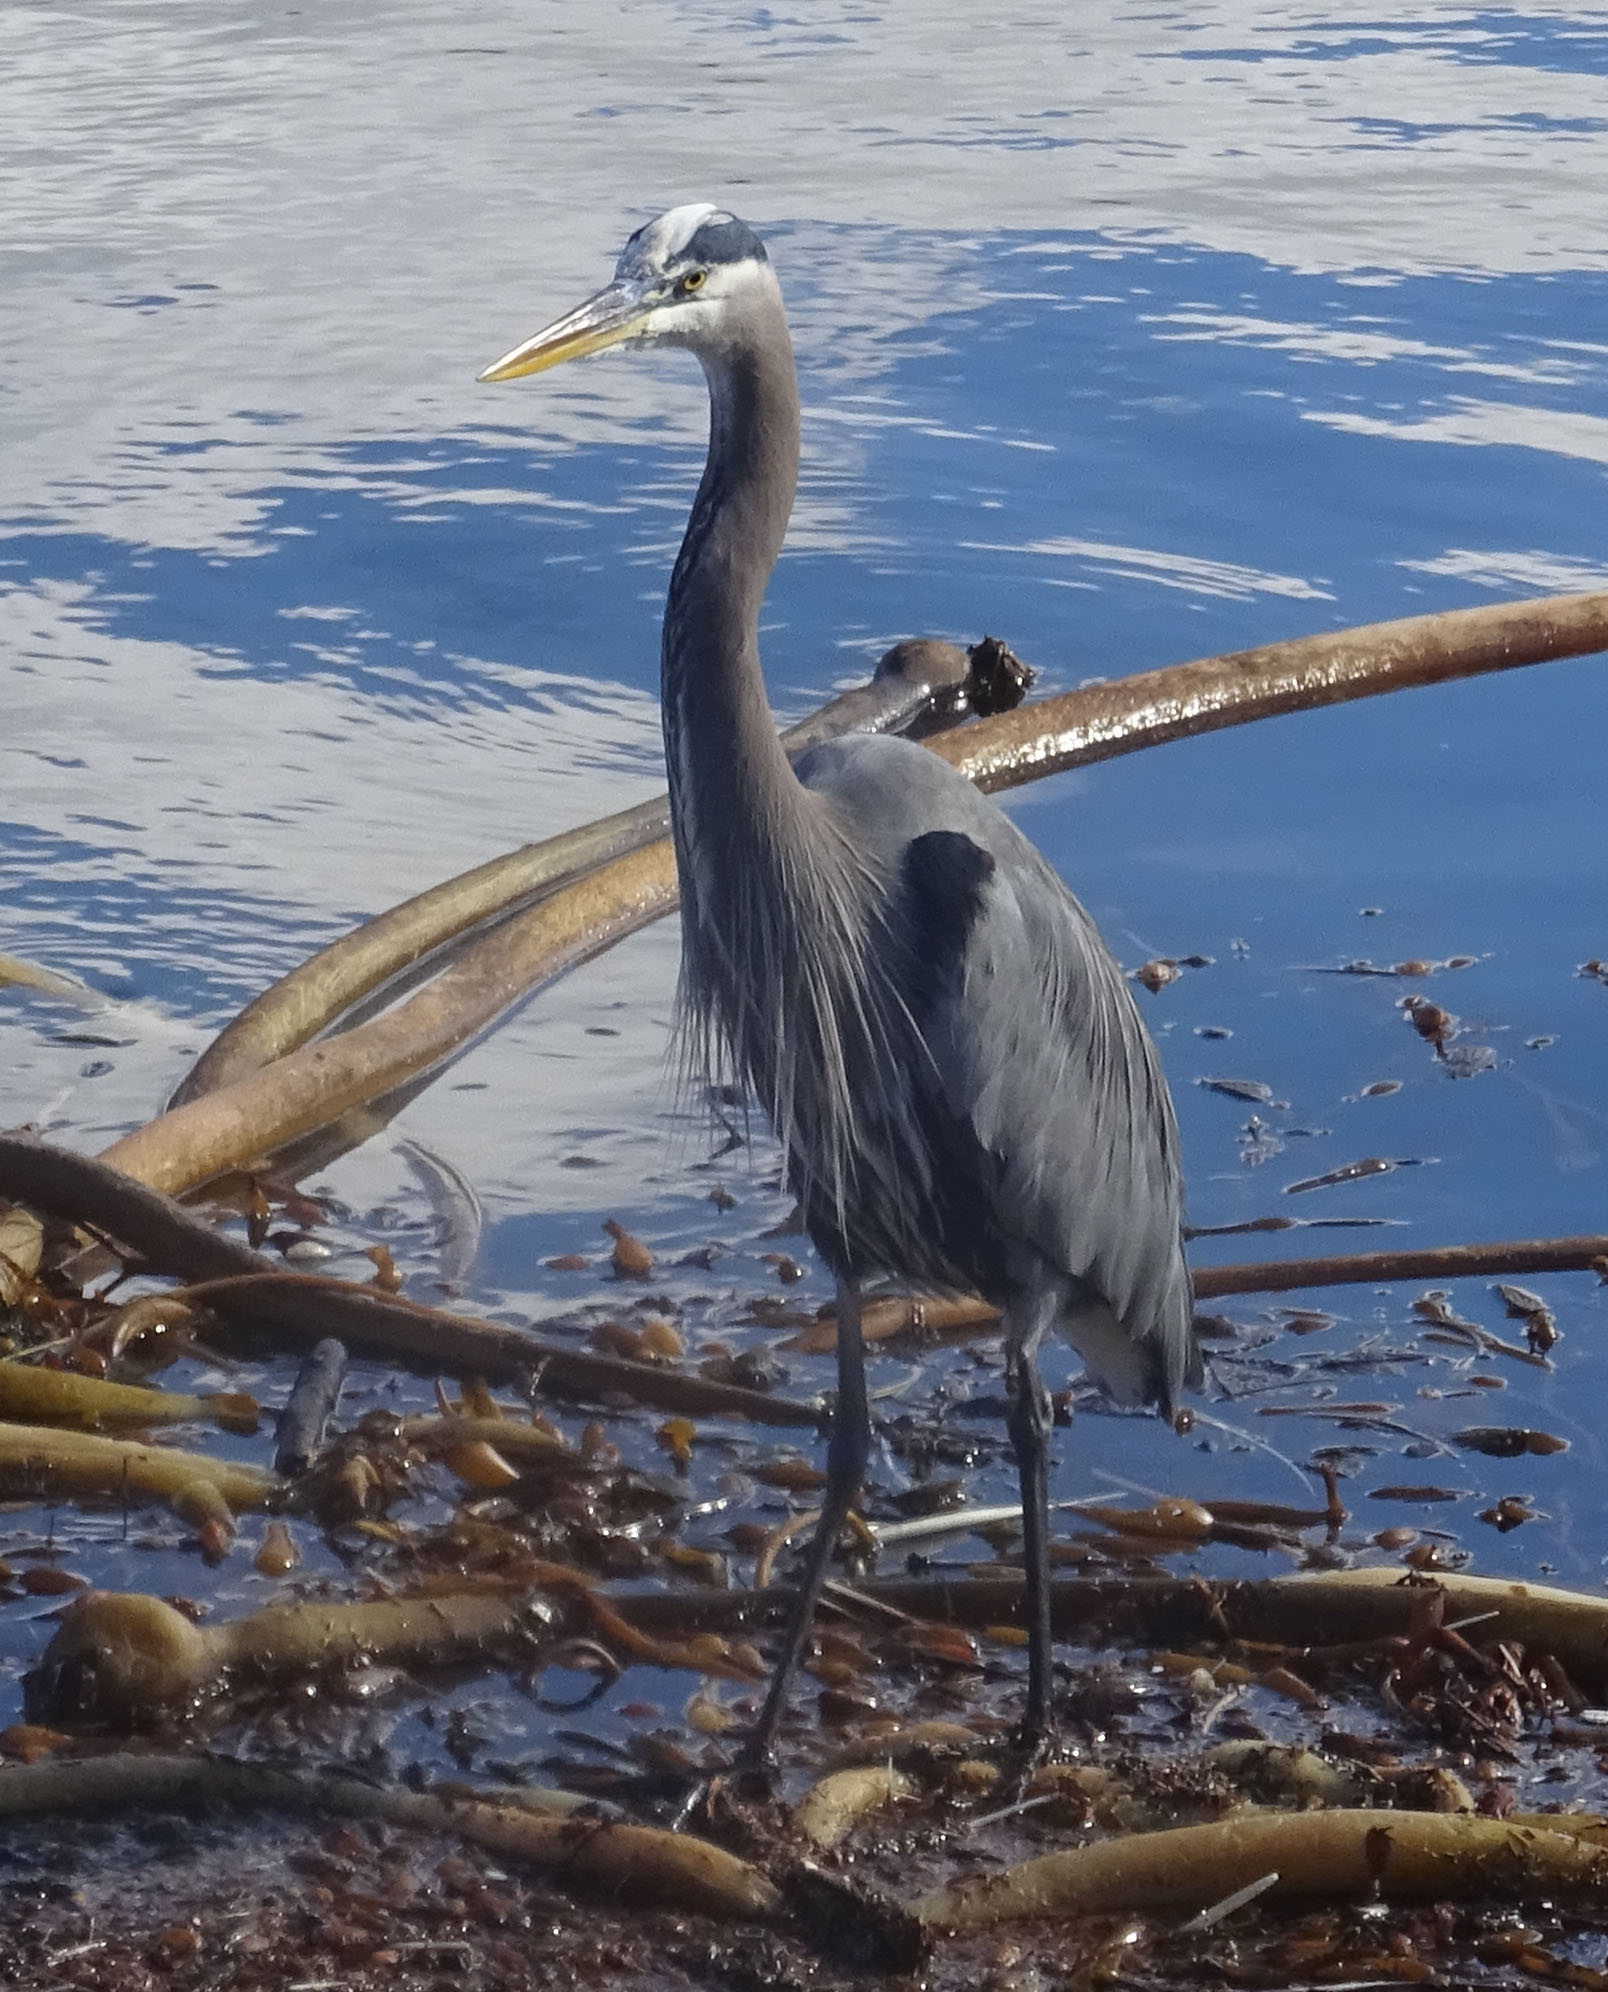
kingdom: Animalia
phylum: Chordata
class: Aves
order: Pelecaniformes
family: Ardeidae
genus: Ardea
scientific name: Ardea herodias
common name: Great blue heron
